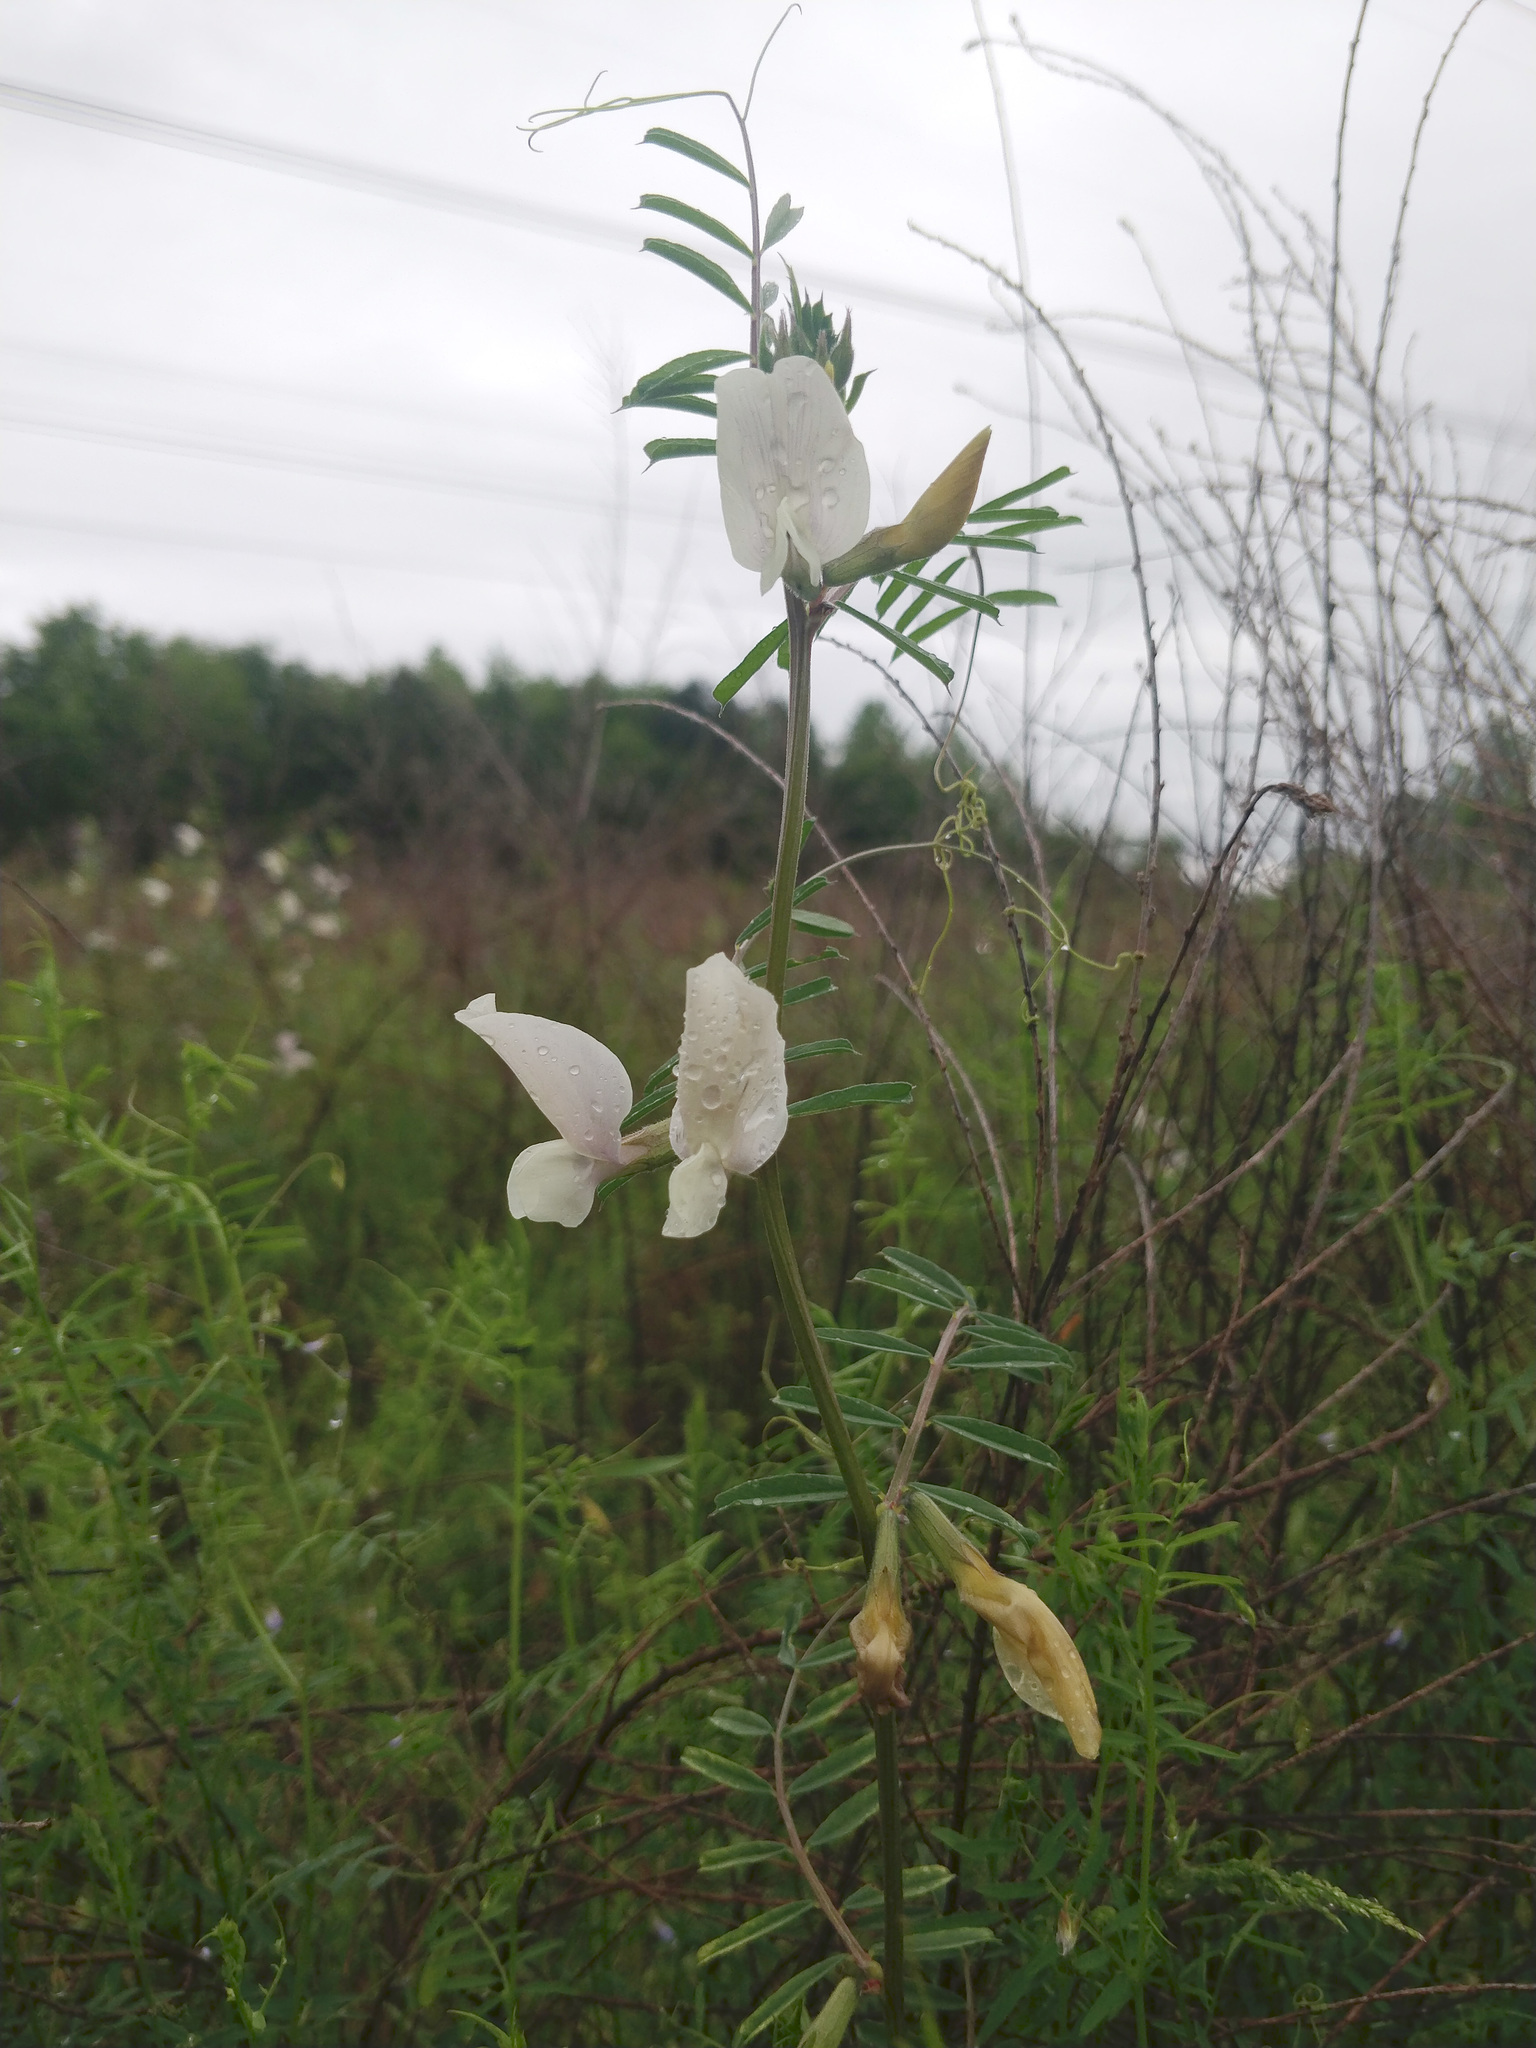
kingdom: Plantae
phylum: Tracheophyta
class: Magnoliopsida
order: Fabales
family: Fabaceae
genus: Vicia
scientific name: Vicia grandiflora
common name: Large yellow vetch
